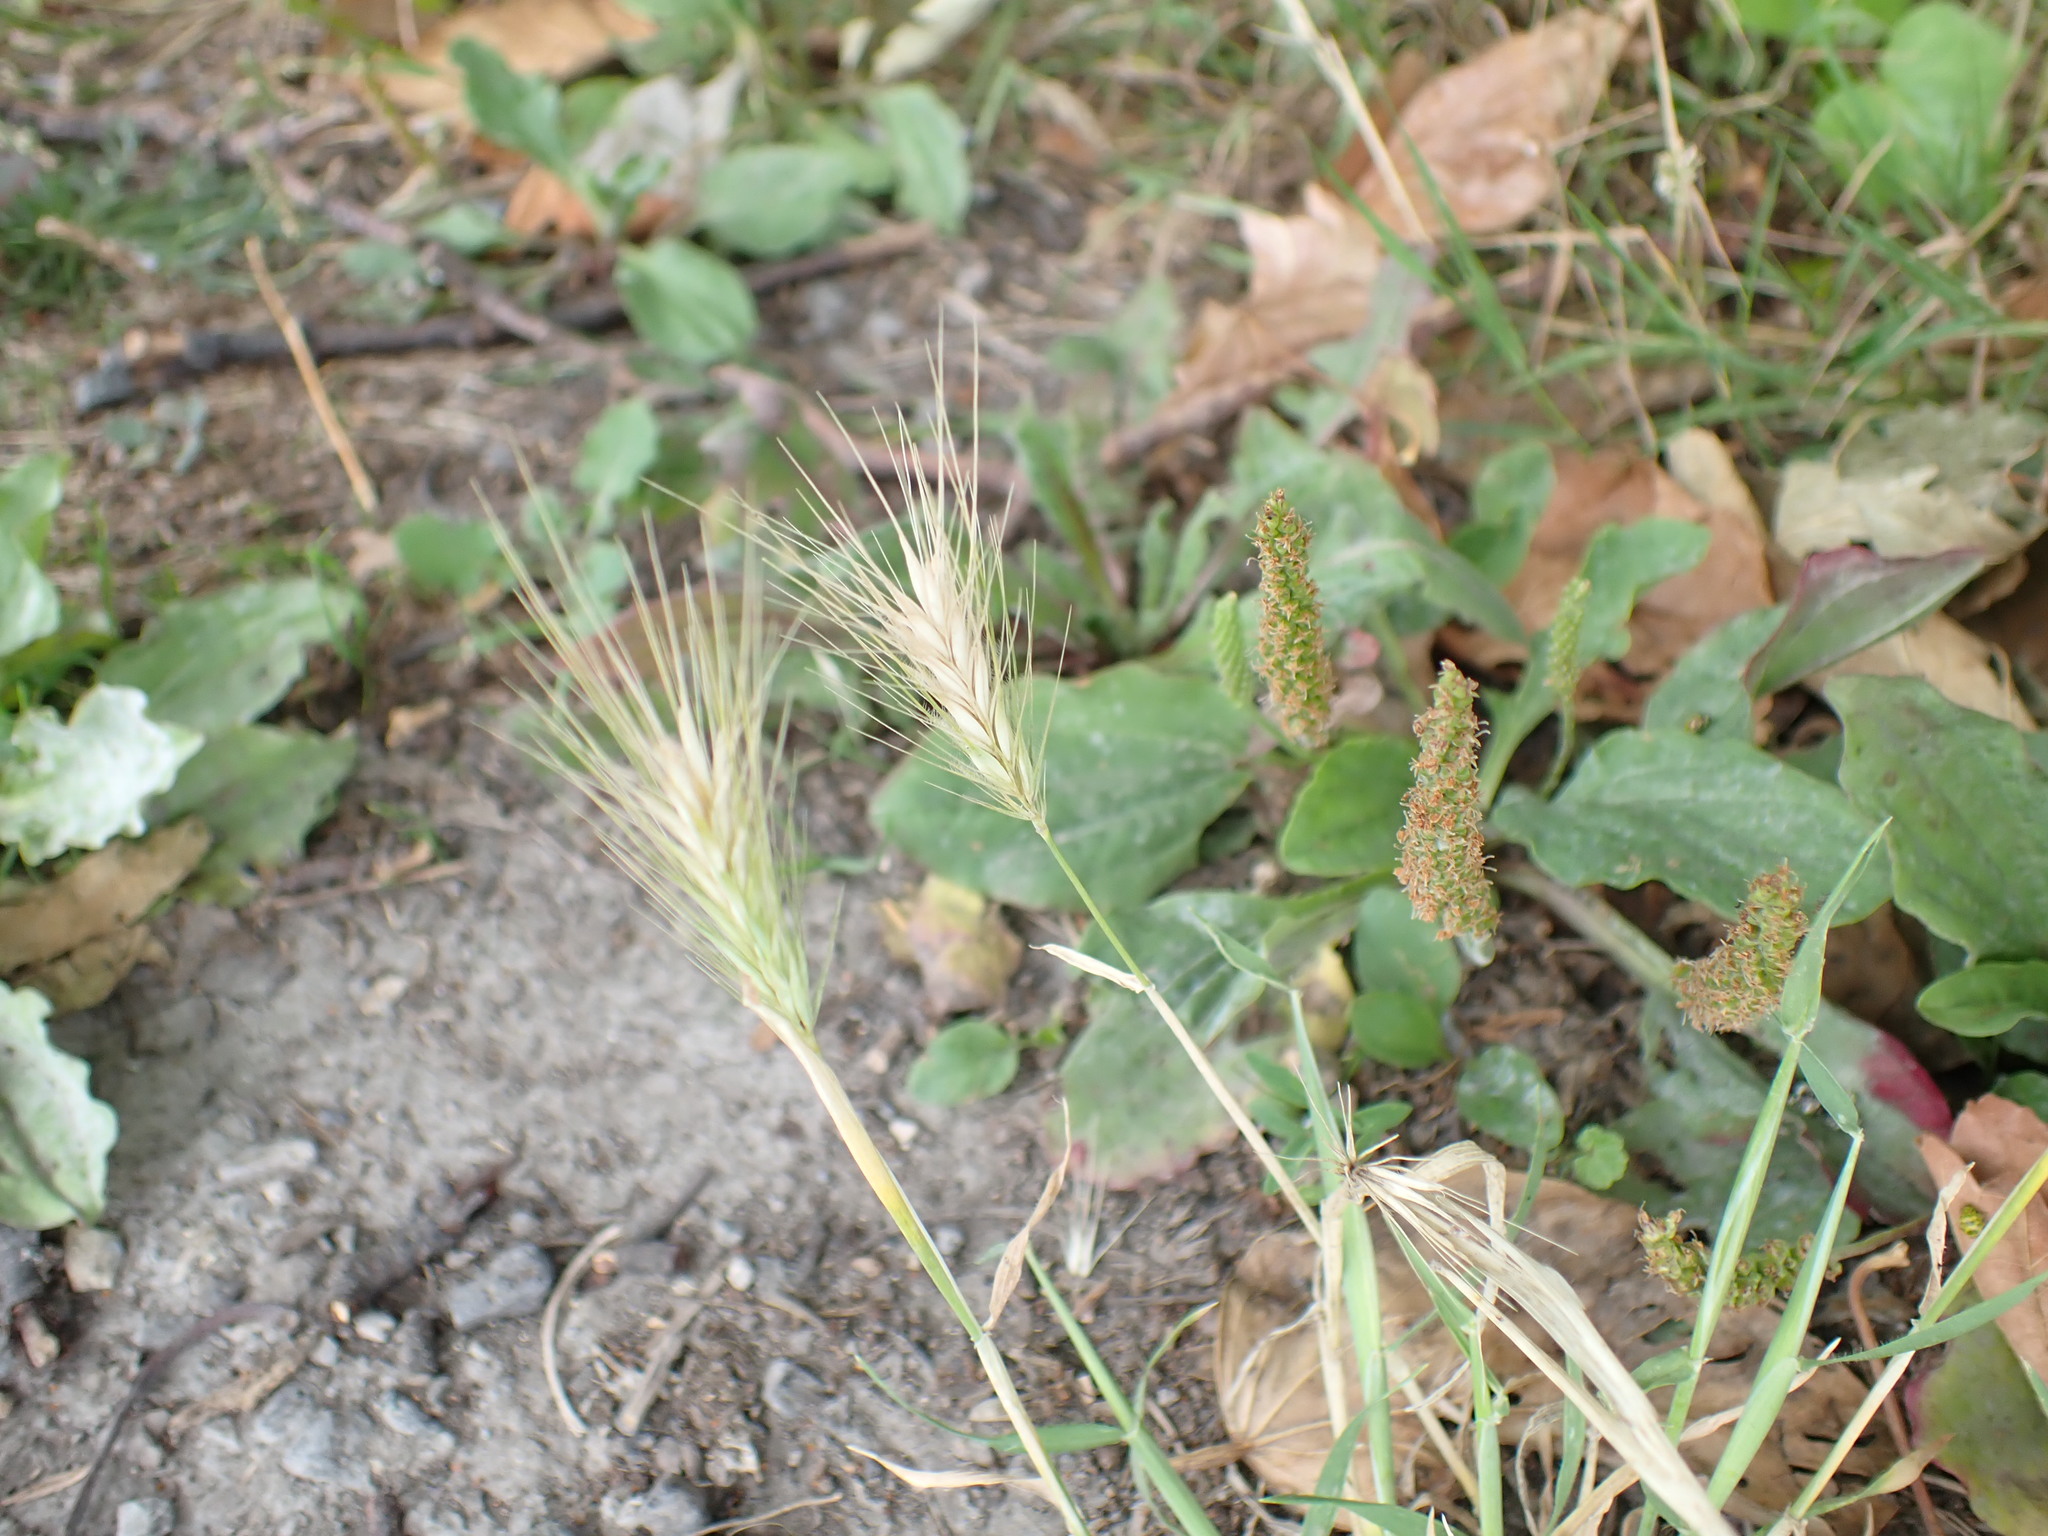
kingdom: Plantae
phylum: Tracheophyta
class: Liliopsida
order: Poales
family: Poaceae
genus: Hordeum
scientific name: Hordeum murinum
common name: Wall barley
